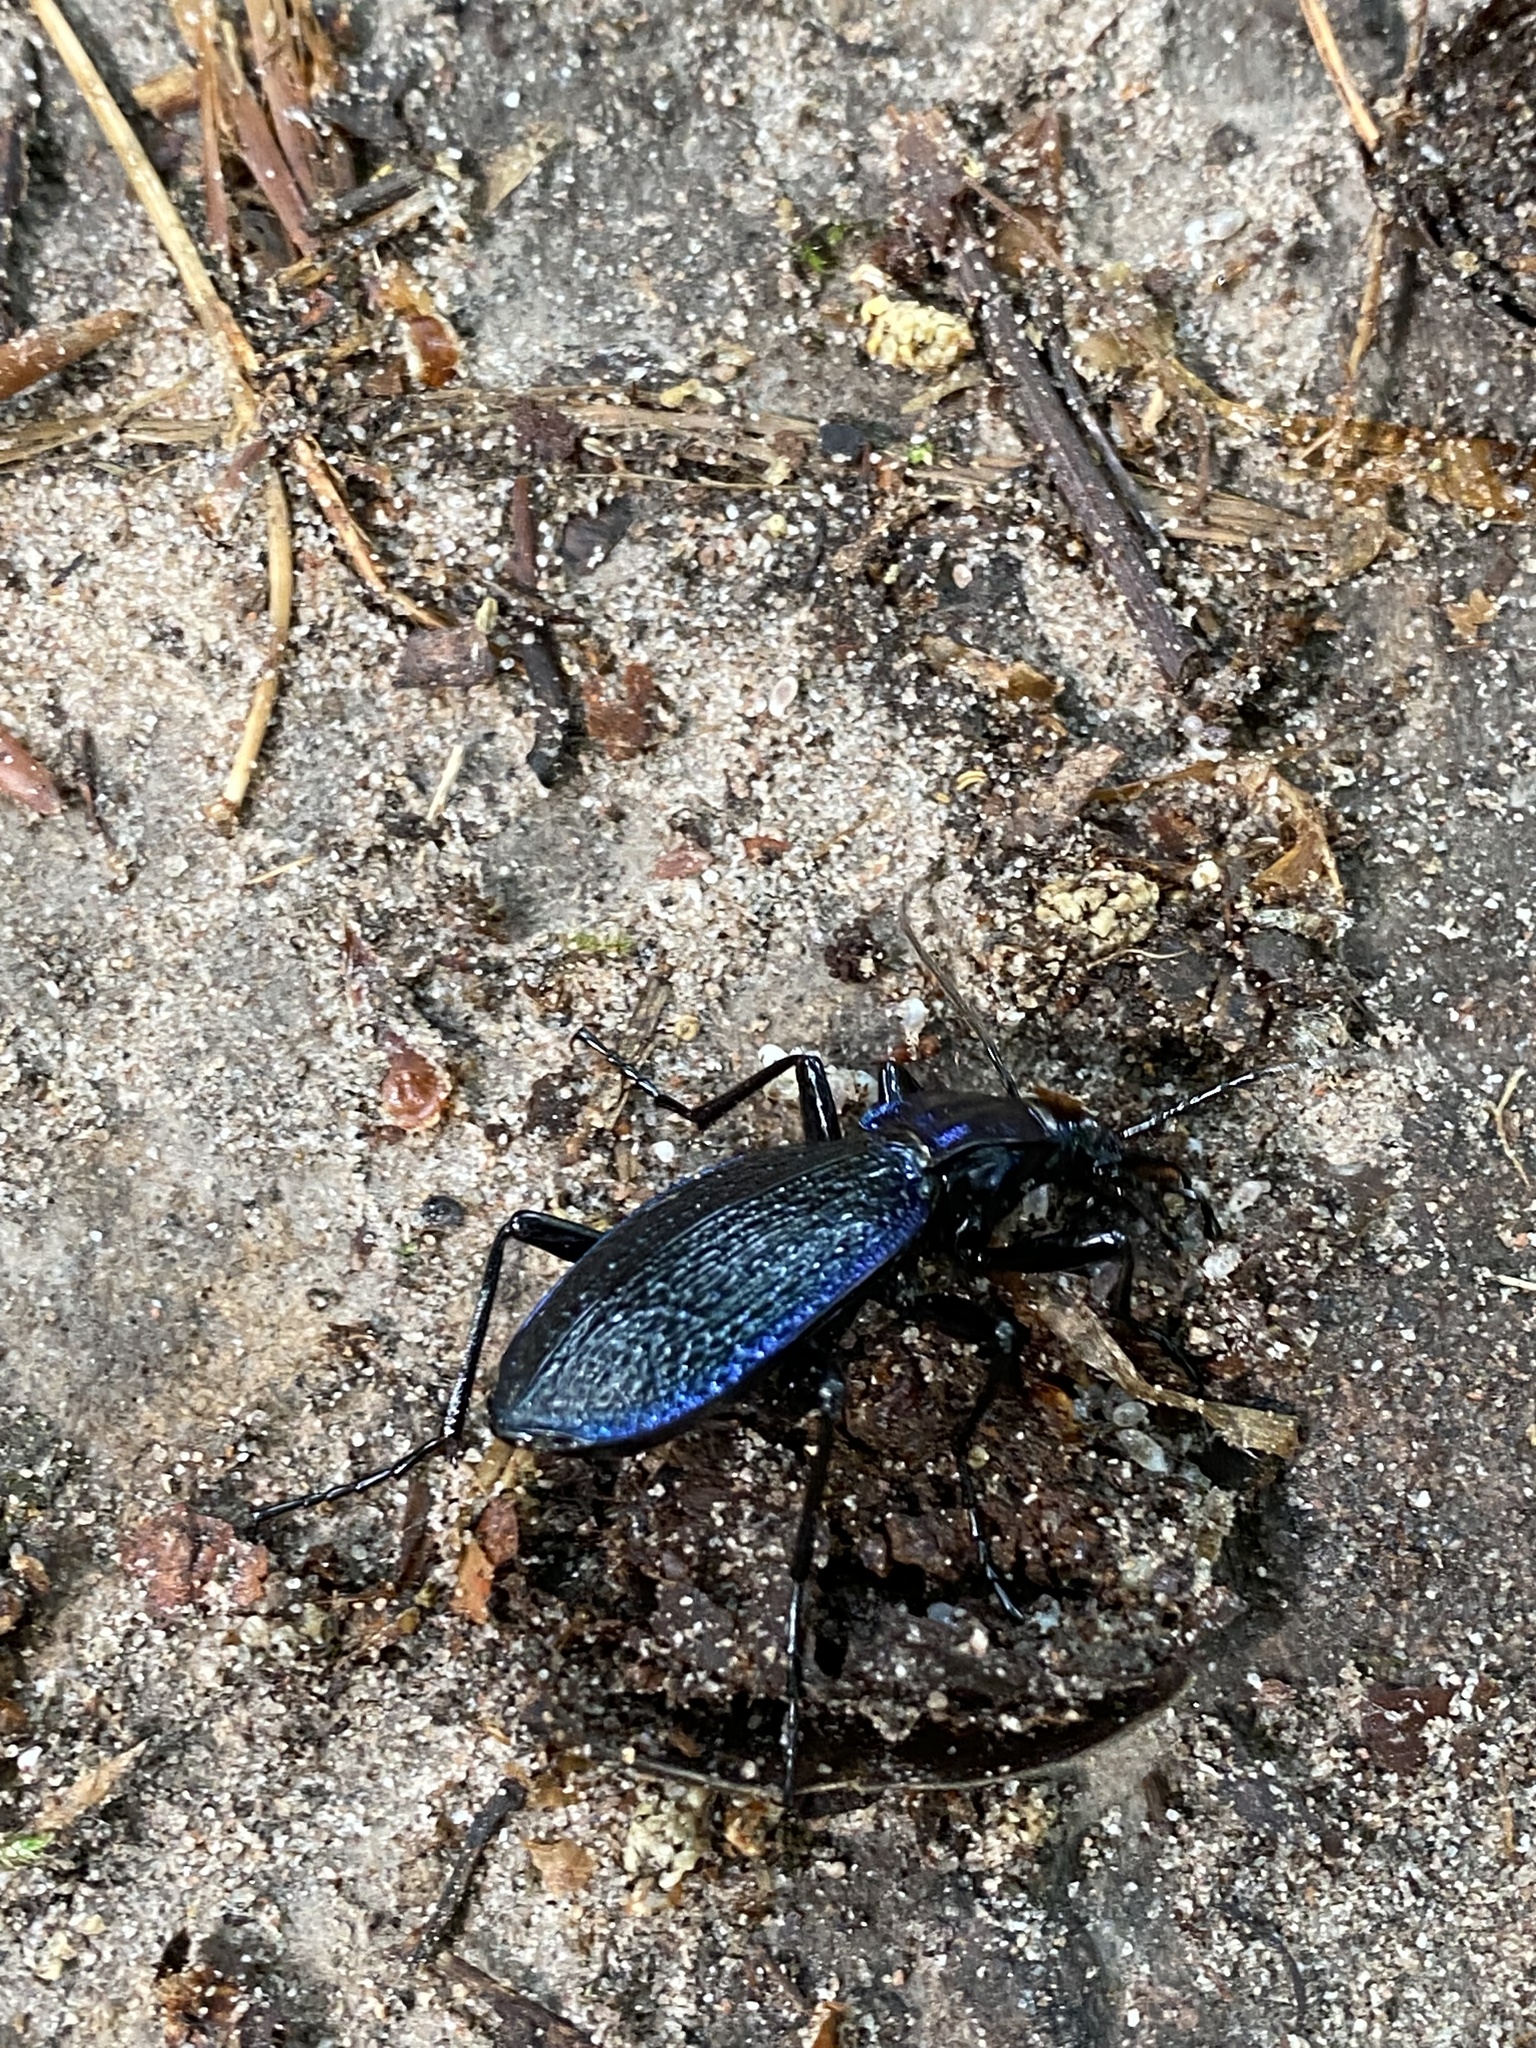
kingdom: Animalia
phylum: Arthropoda
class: Insecta
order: Coleoptera
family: Carabidae
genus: Carabus
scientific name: Carabus intricatus
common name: Blue ground beetle
